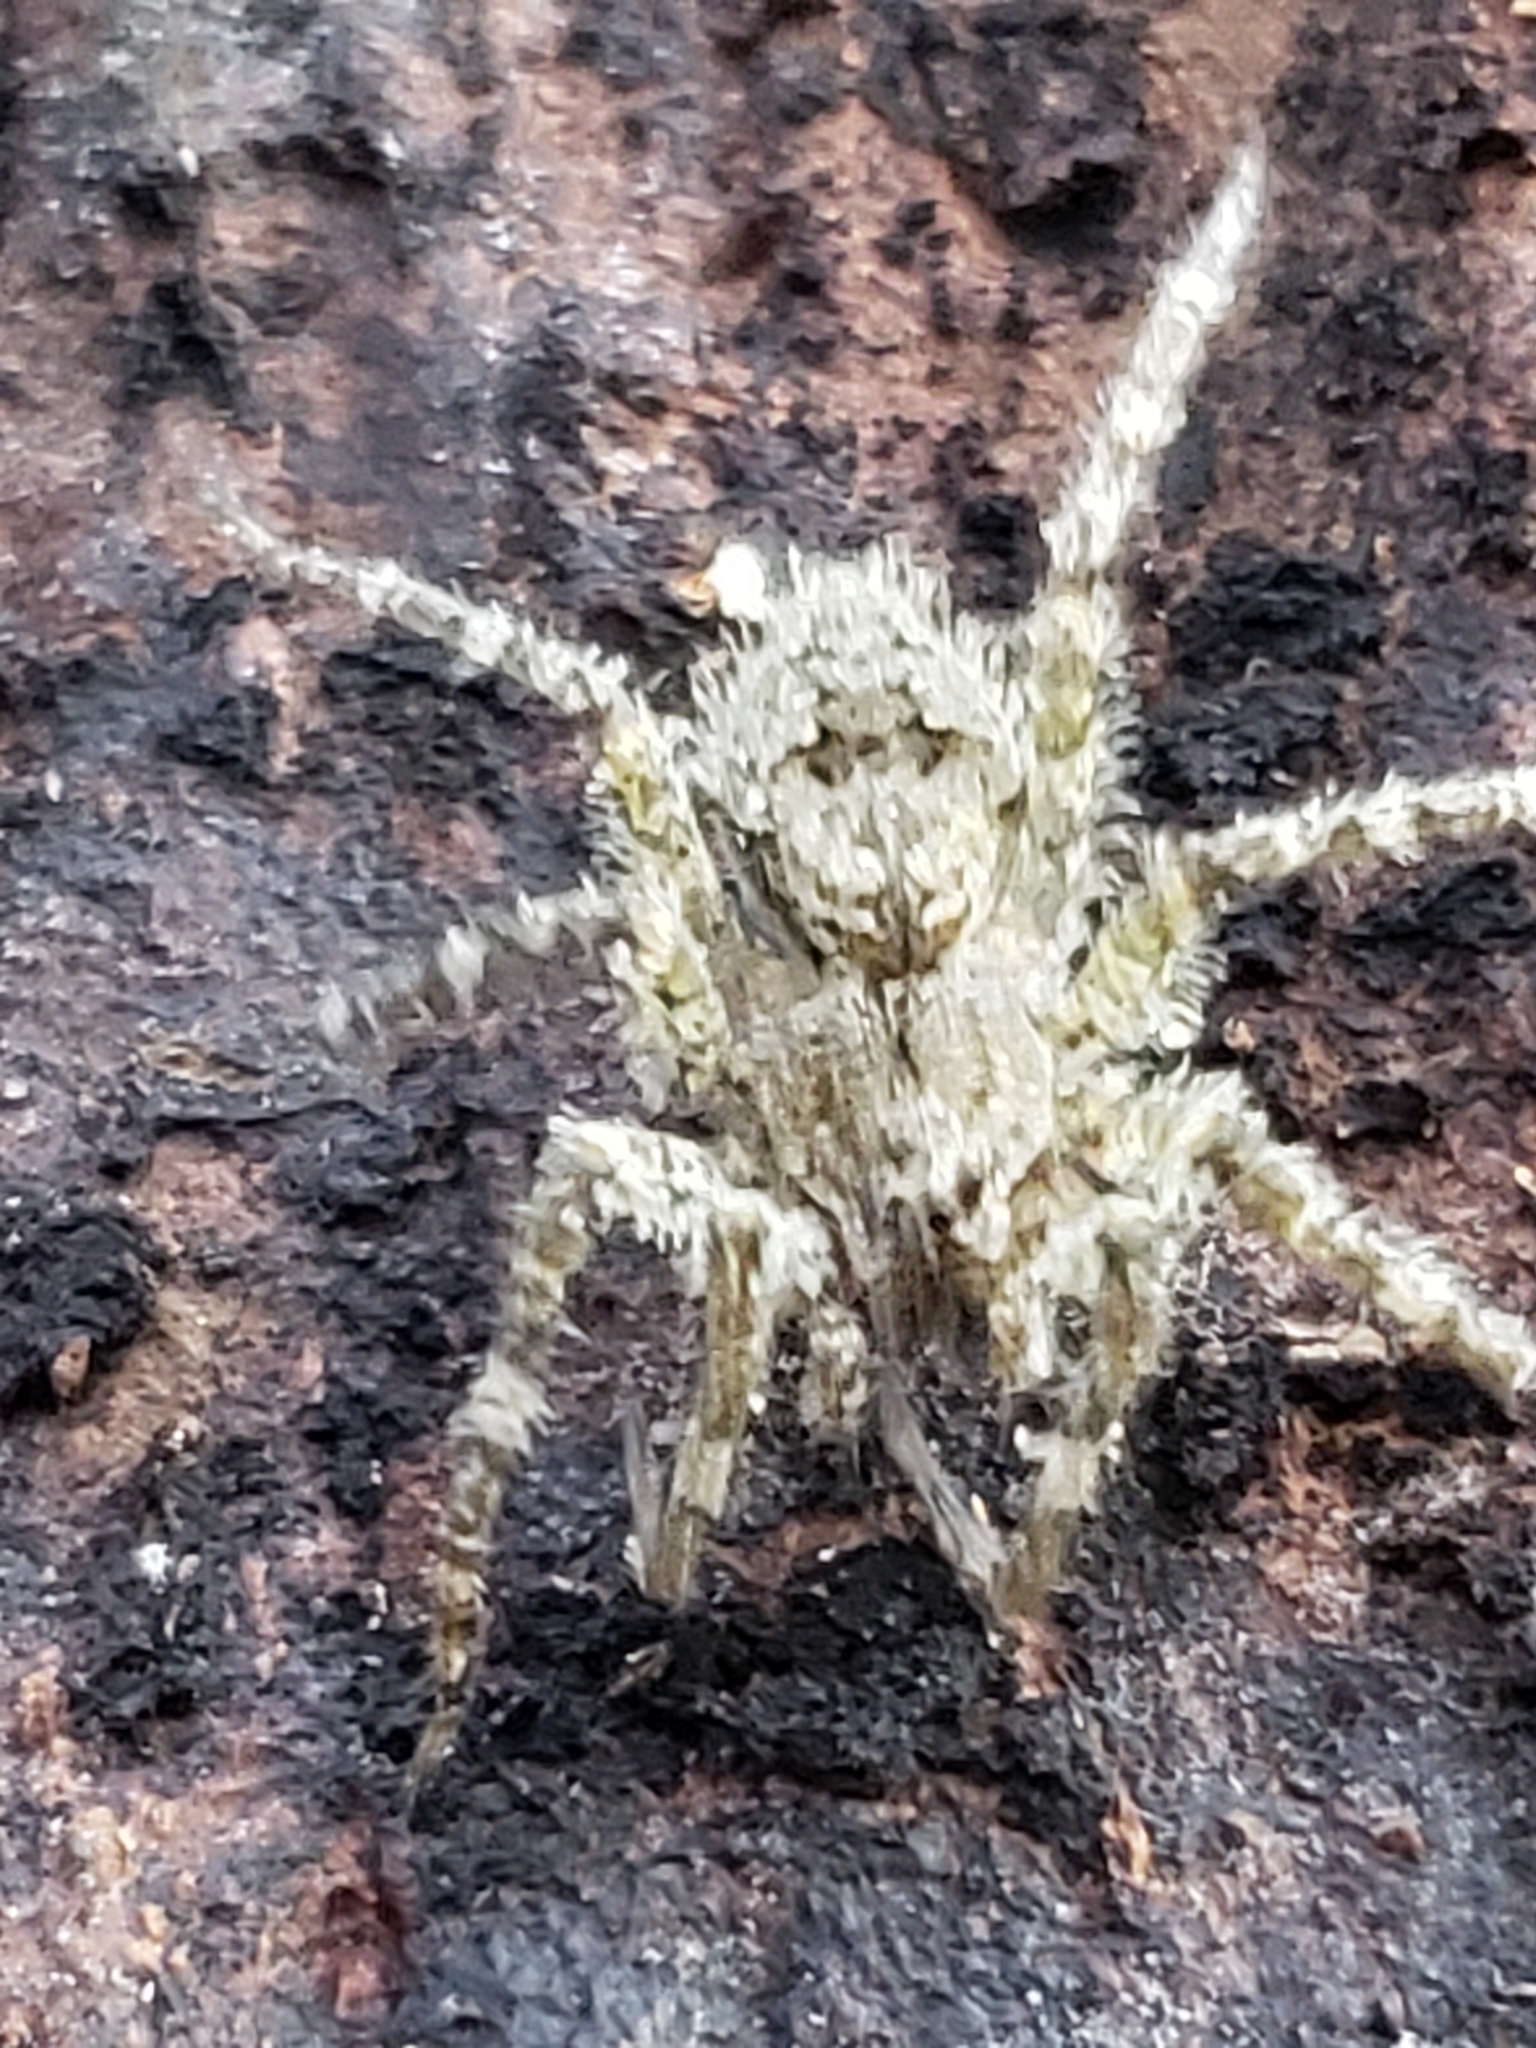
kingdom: Animalia
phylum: Arthropoda
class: Arachnida
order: Araneae
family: Pisauridae
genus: Dolomedes
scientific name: Dolomedes albineus
